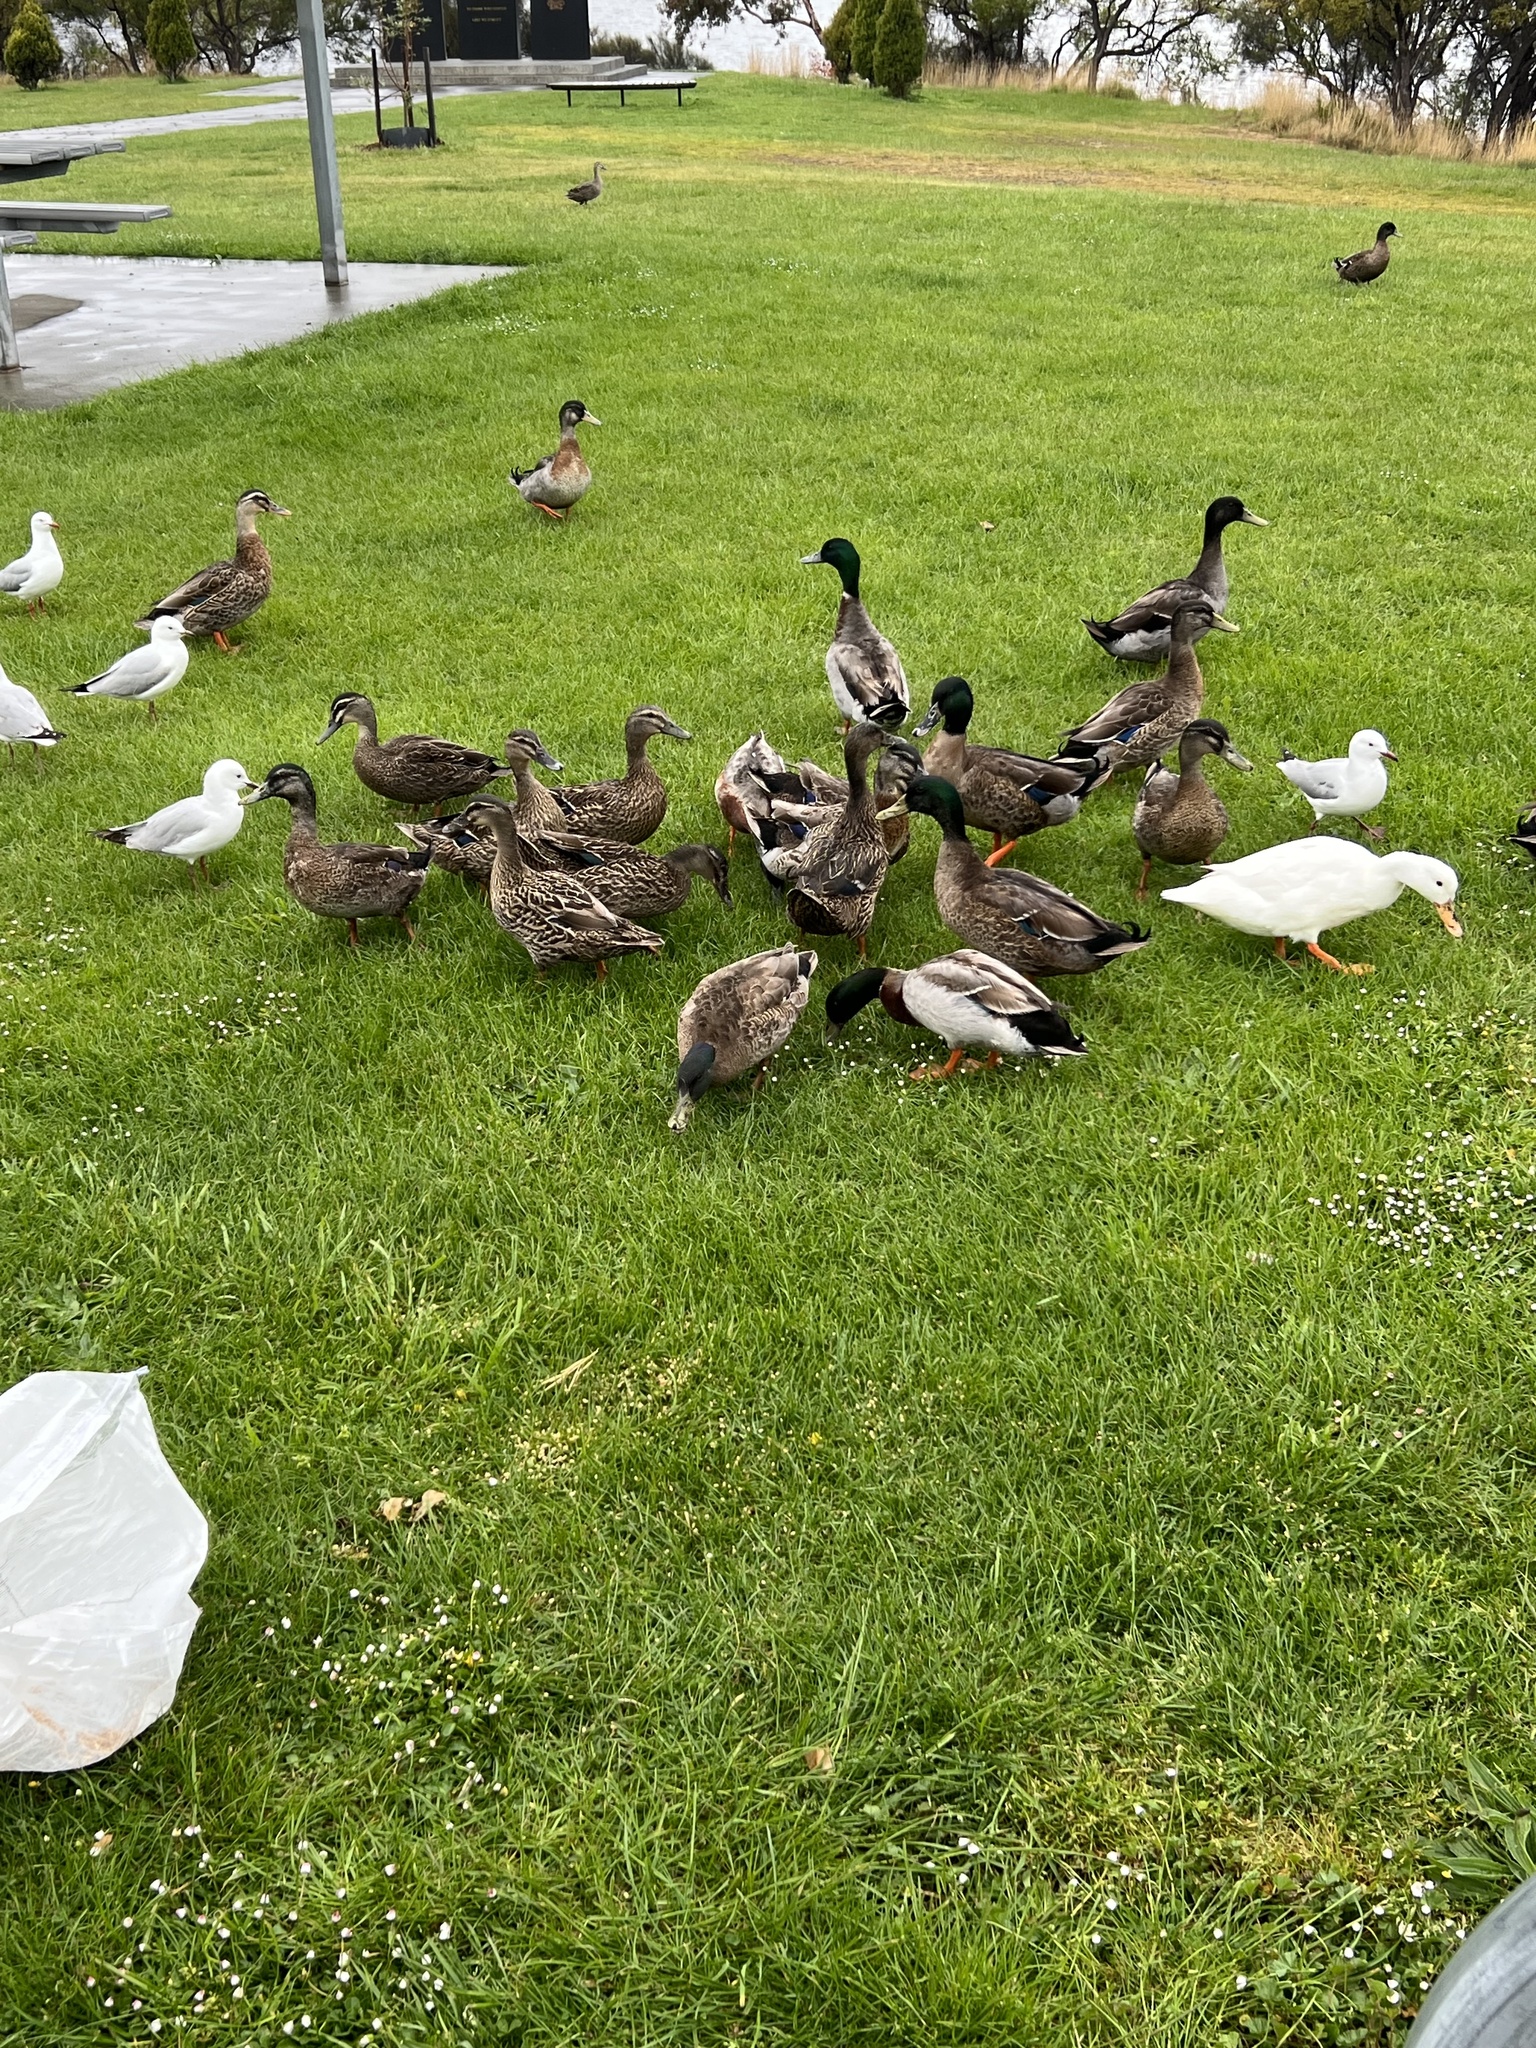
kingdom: Animalia
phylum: Chordata
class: Aves
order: Anseriformes
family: Anatidae
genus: Anas
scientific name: Anas platyrhynchos
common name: Mallard
